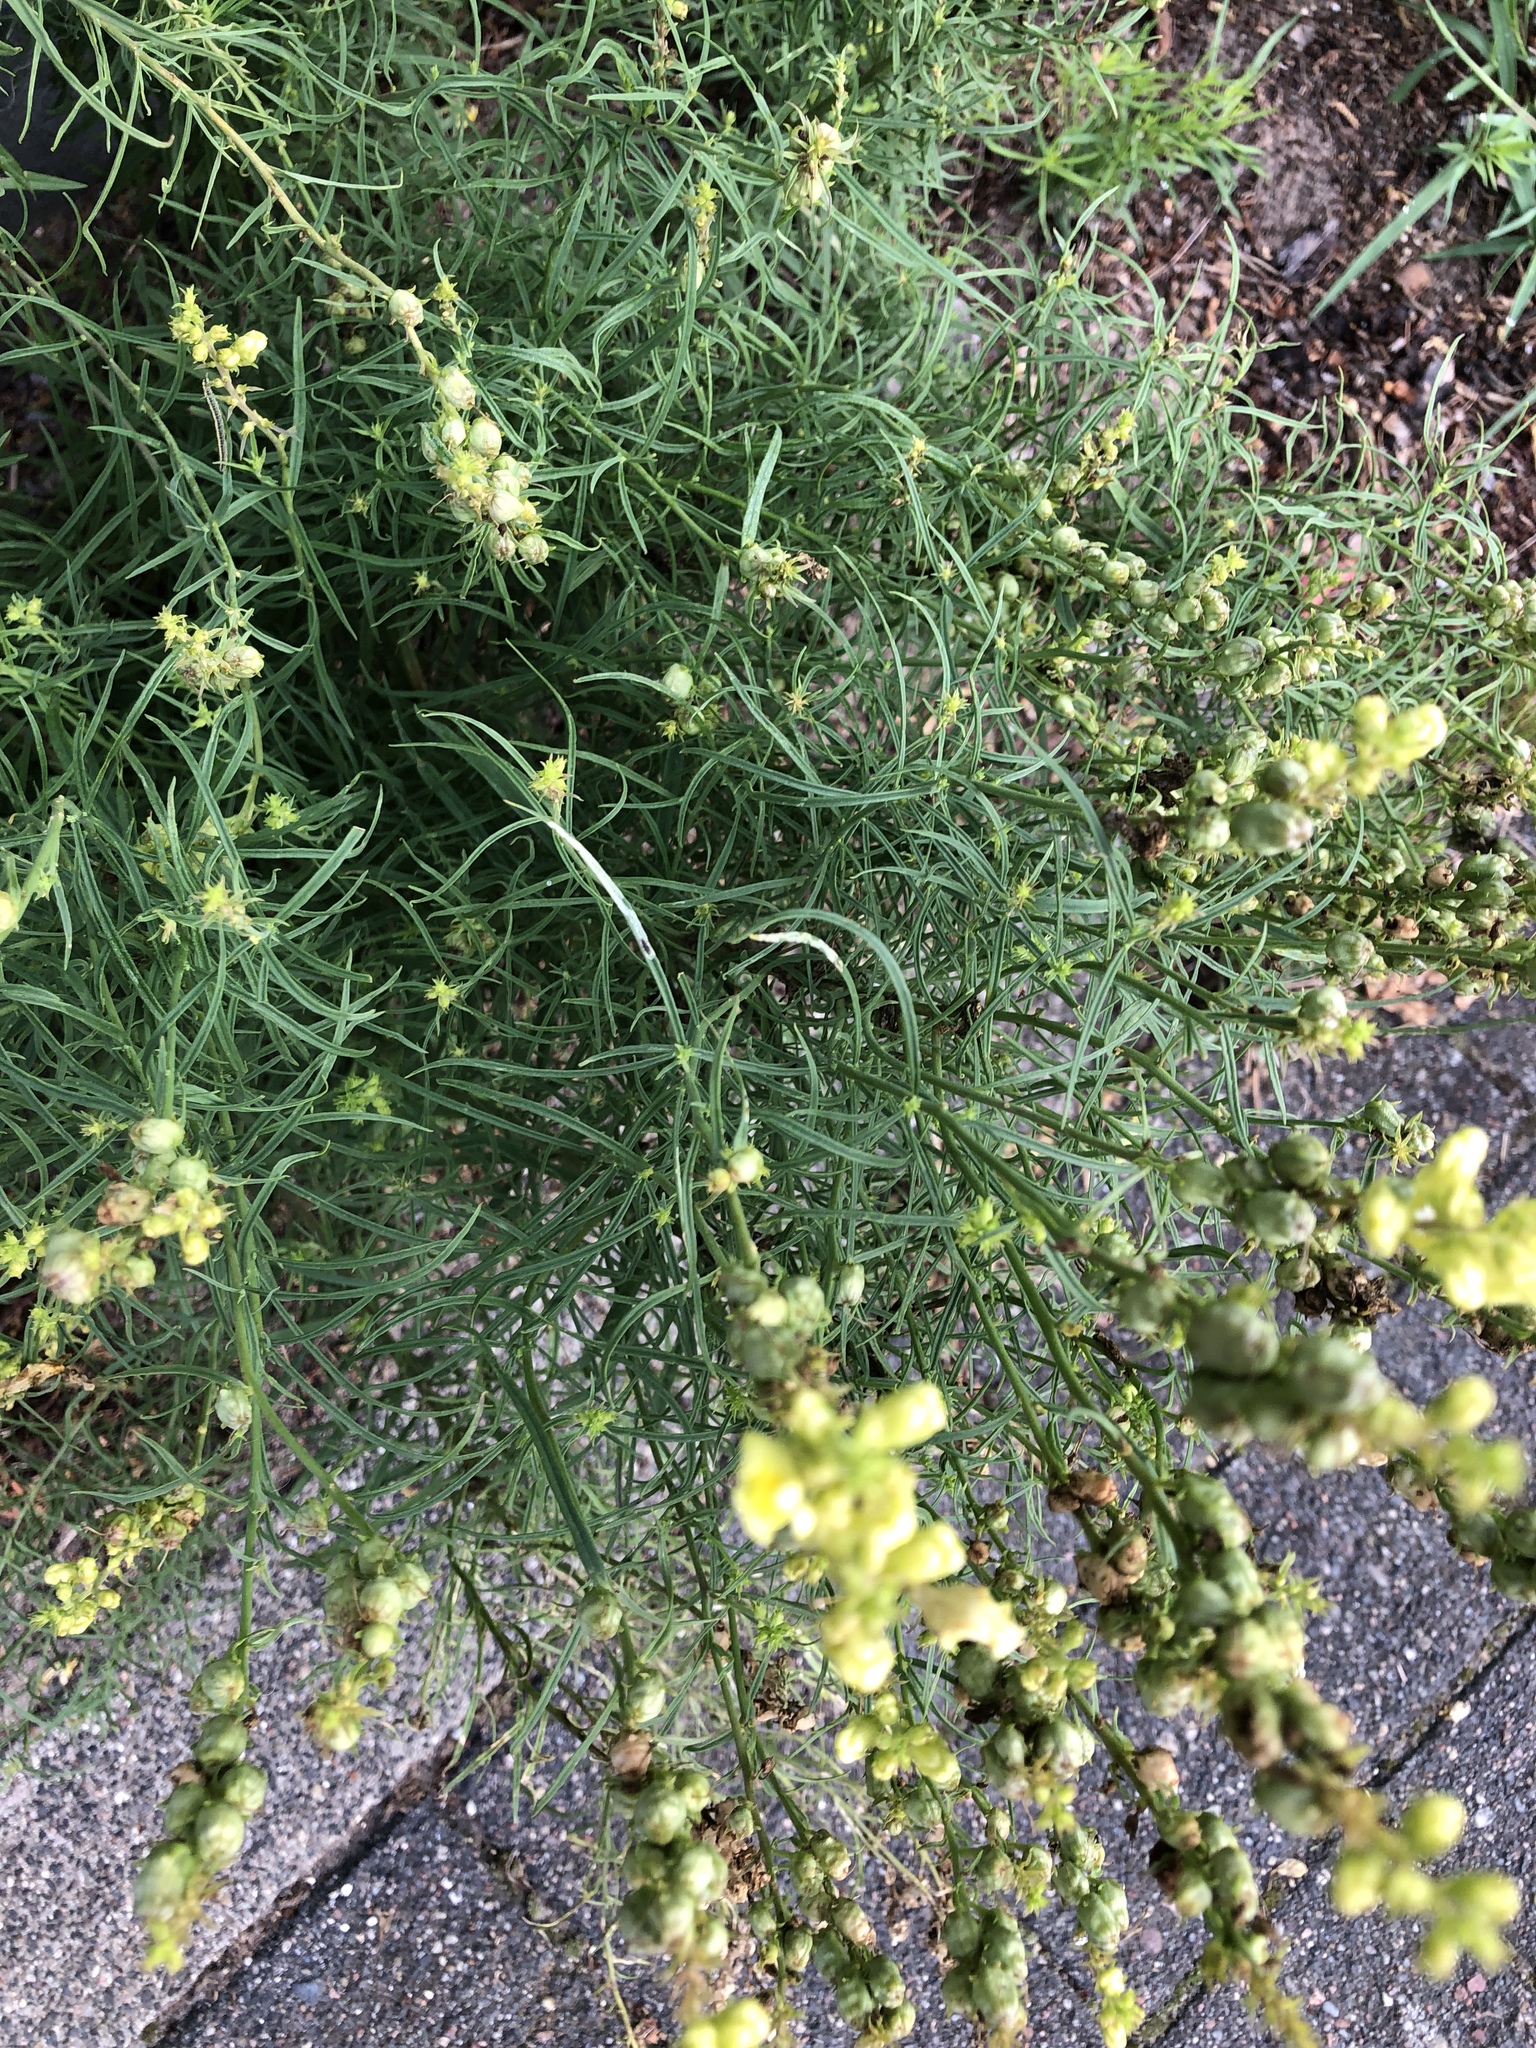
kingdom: Plantae
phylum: Tracheophyta
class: Magnoliopsida
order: Lamiales
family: Plantaginaceae
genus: Linaria
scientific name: Linaria vulgaris
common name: Butter and eggs
